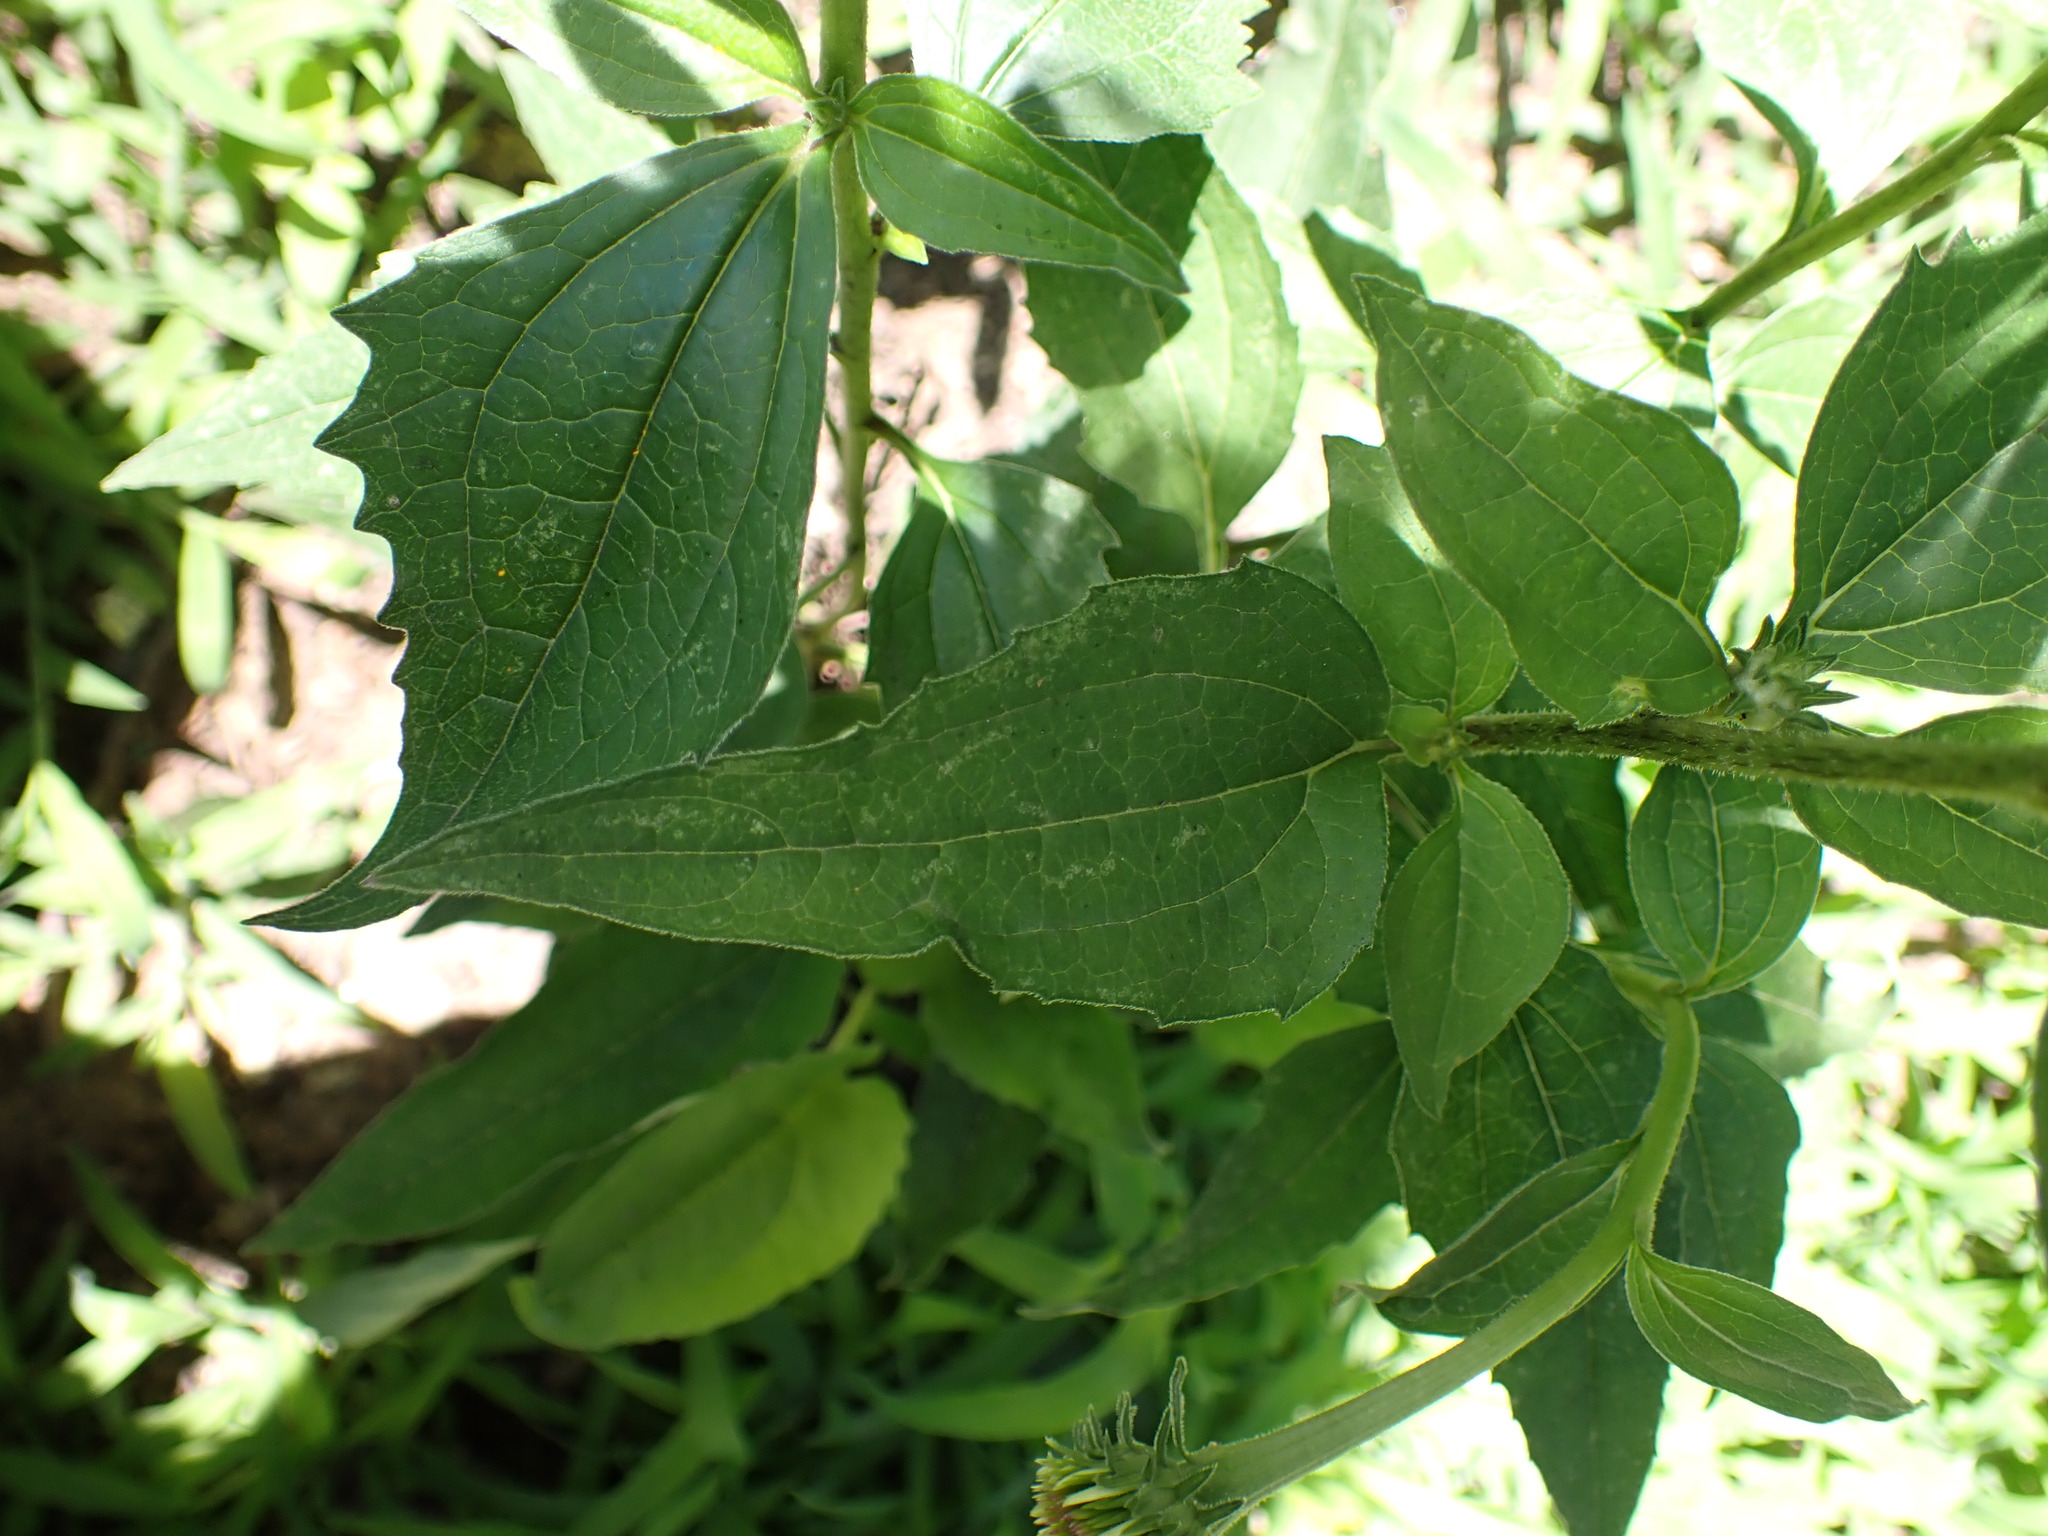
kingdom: Plantae
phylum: Tracheophyta
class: Magnoliopsida
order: Asterales
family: Asteraceae
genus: Echinacea
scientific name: Echinacea purpurea
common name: Broad-leaved purple coneflower
